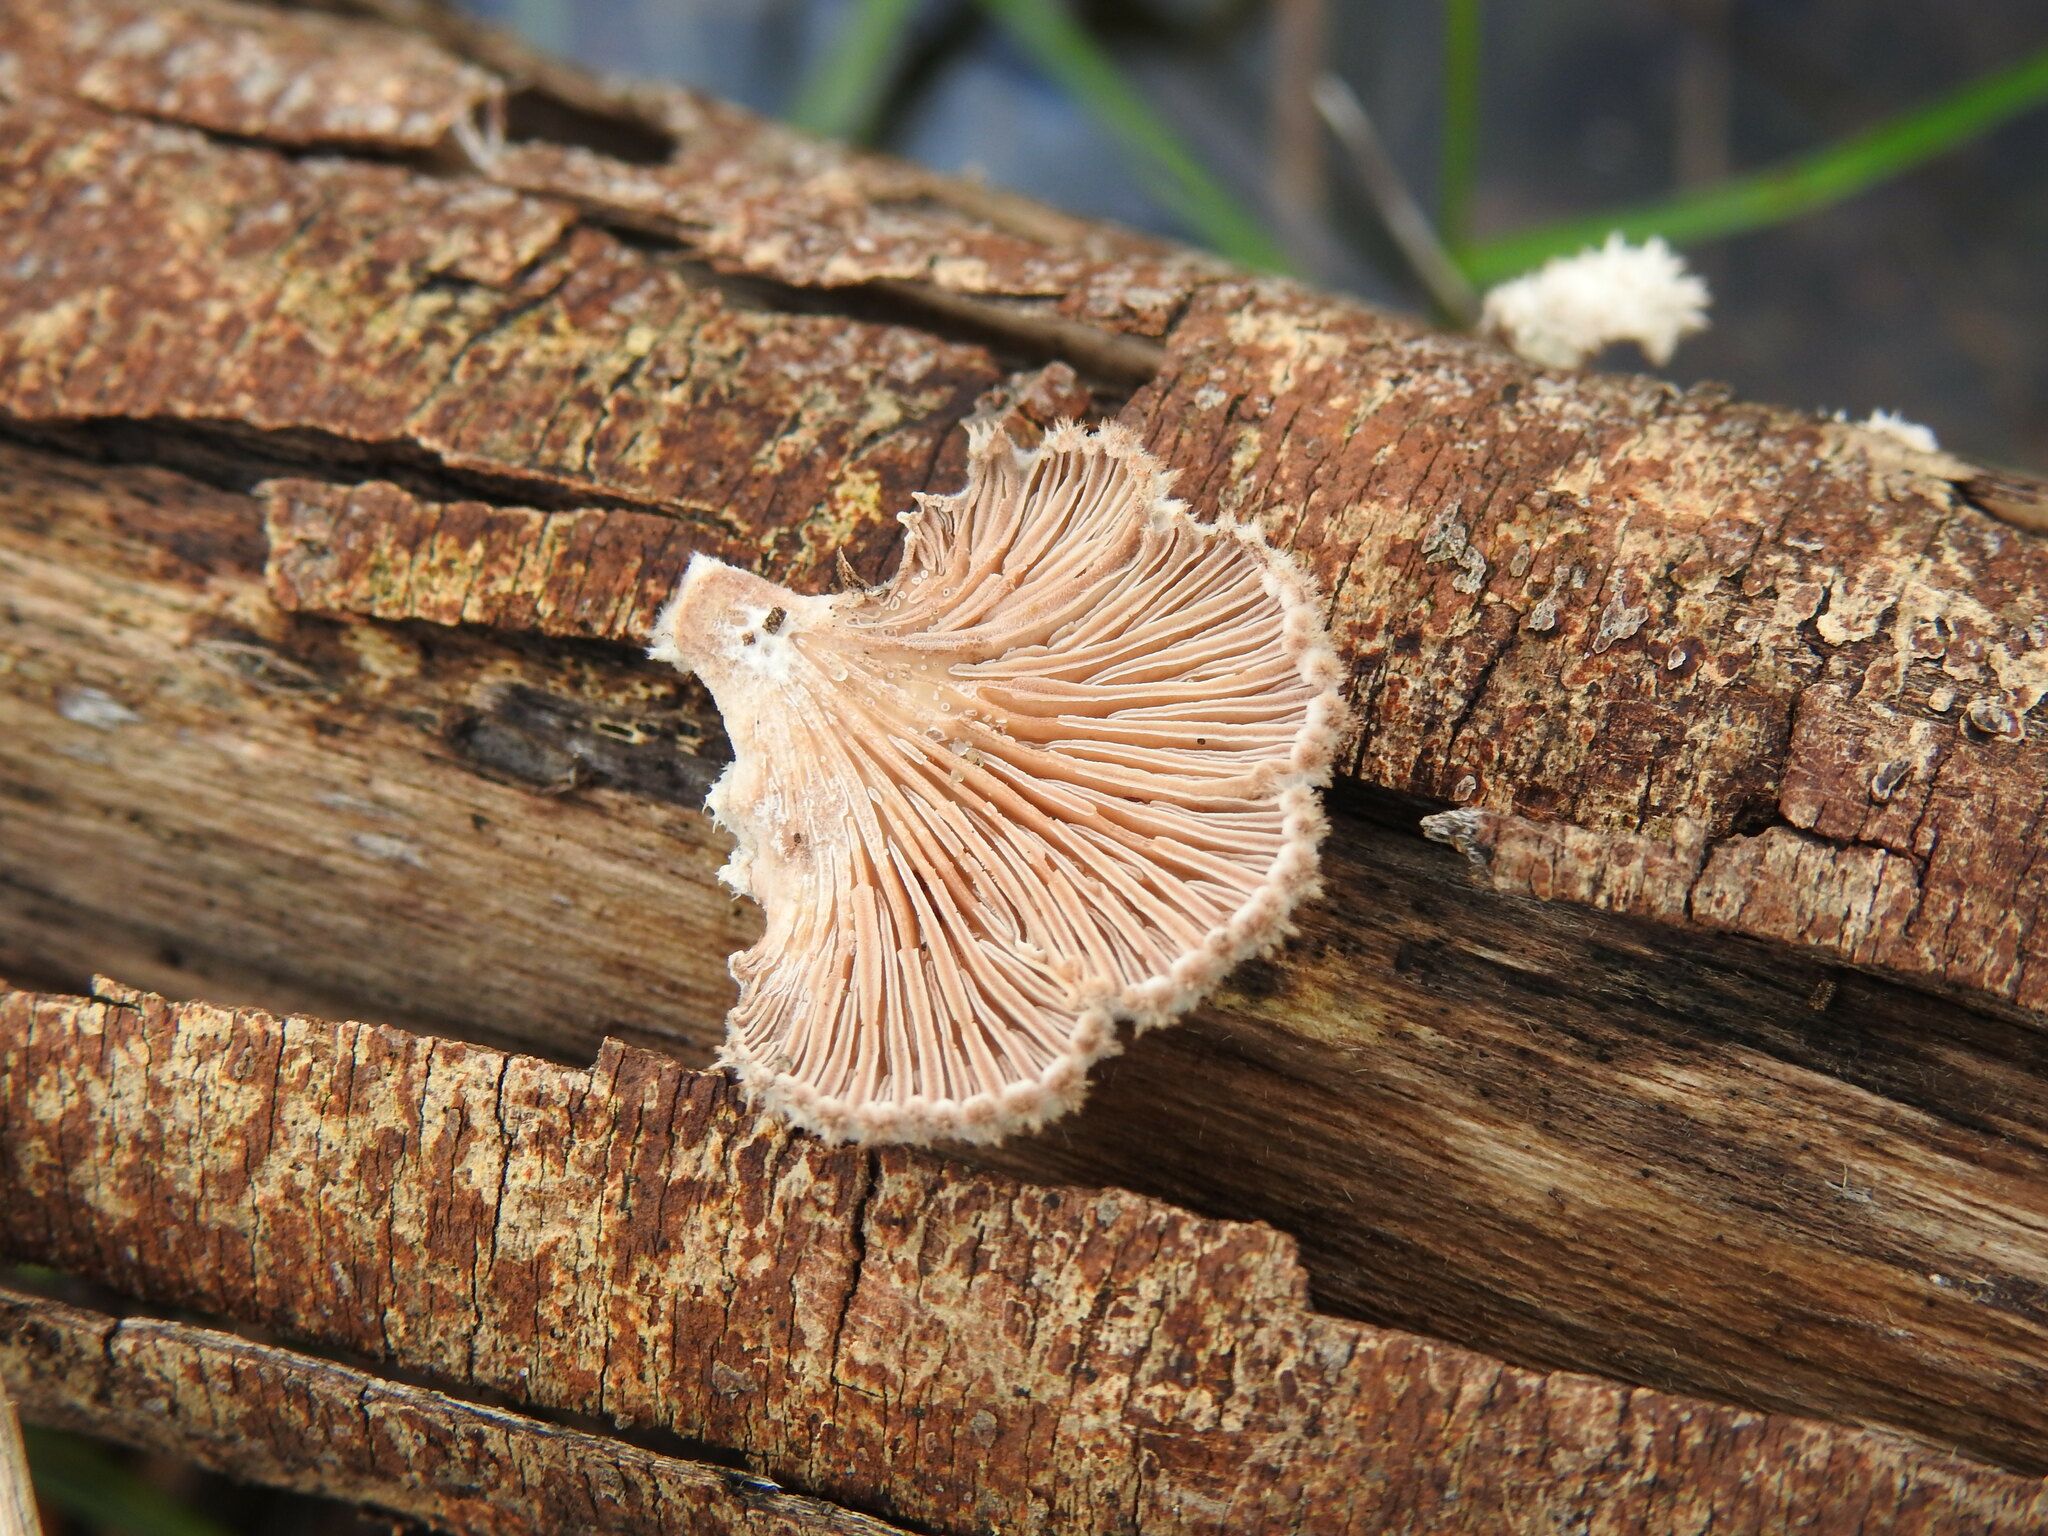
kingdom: Fungi
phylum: Basidiomycota
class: Agaricomycetes
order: Agaricales
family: Schizophyllaceae
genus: Schizophyllum
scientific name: Schizophyllum commune
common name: Common porecrust
